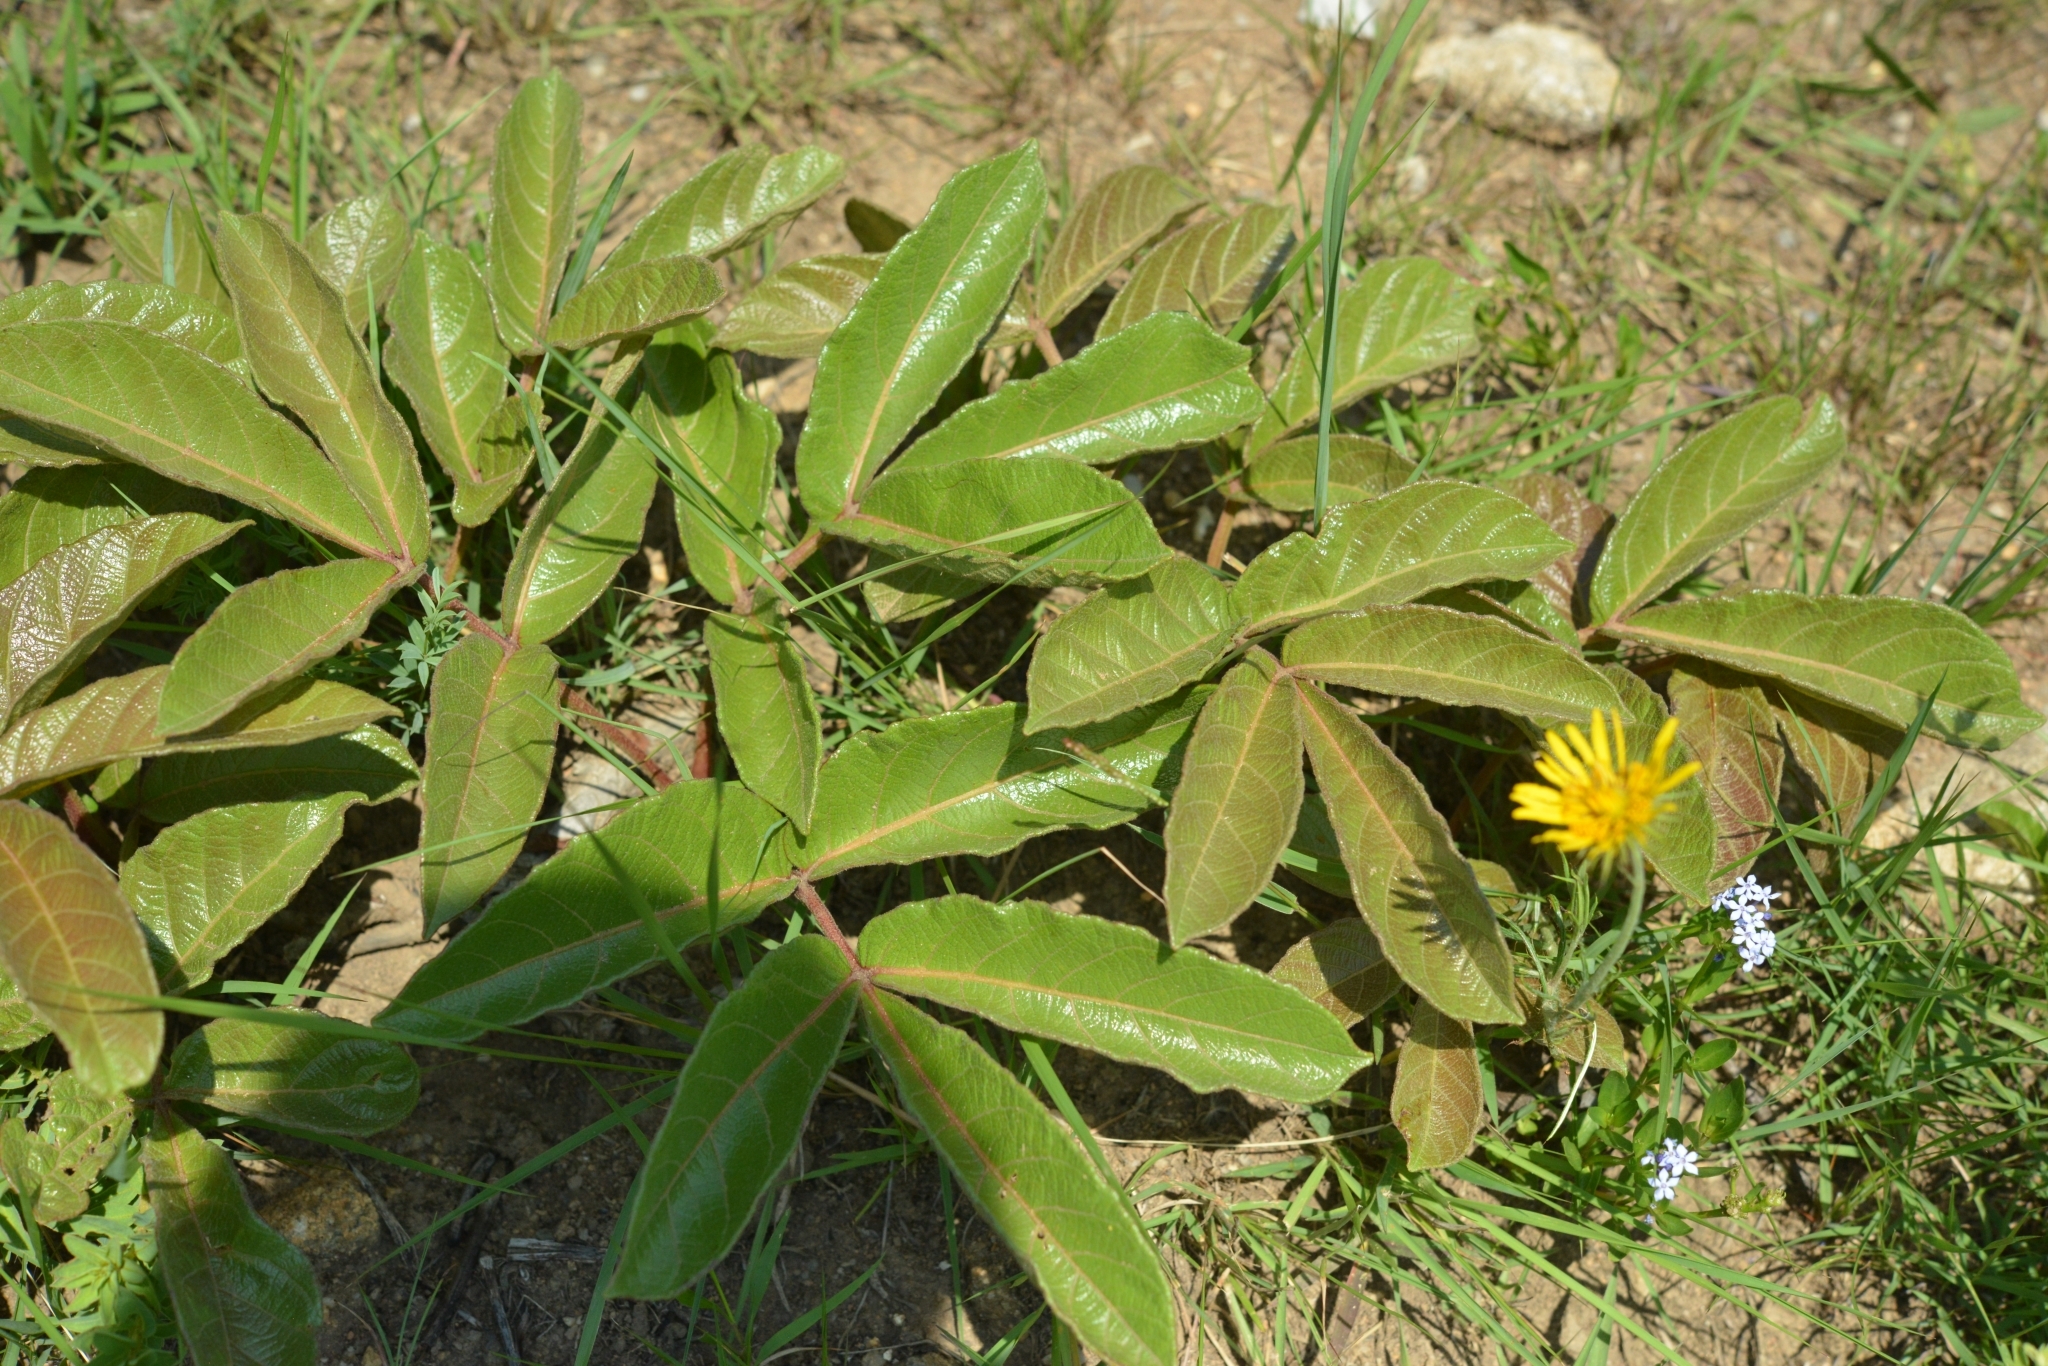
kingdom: Plantae
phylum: Tracheophyta
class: Magnoliopsida
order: Sapindales
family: Anacardiaceae
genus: Lannea
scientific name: Lannea edulis
